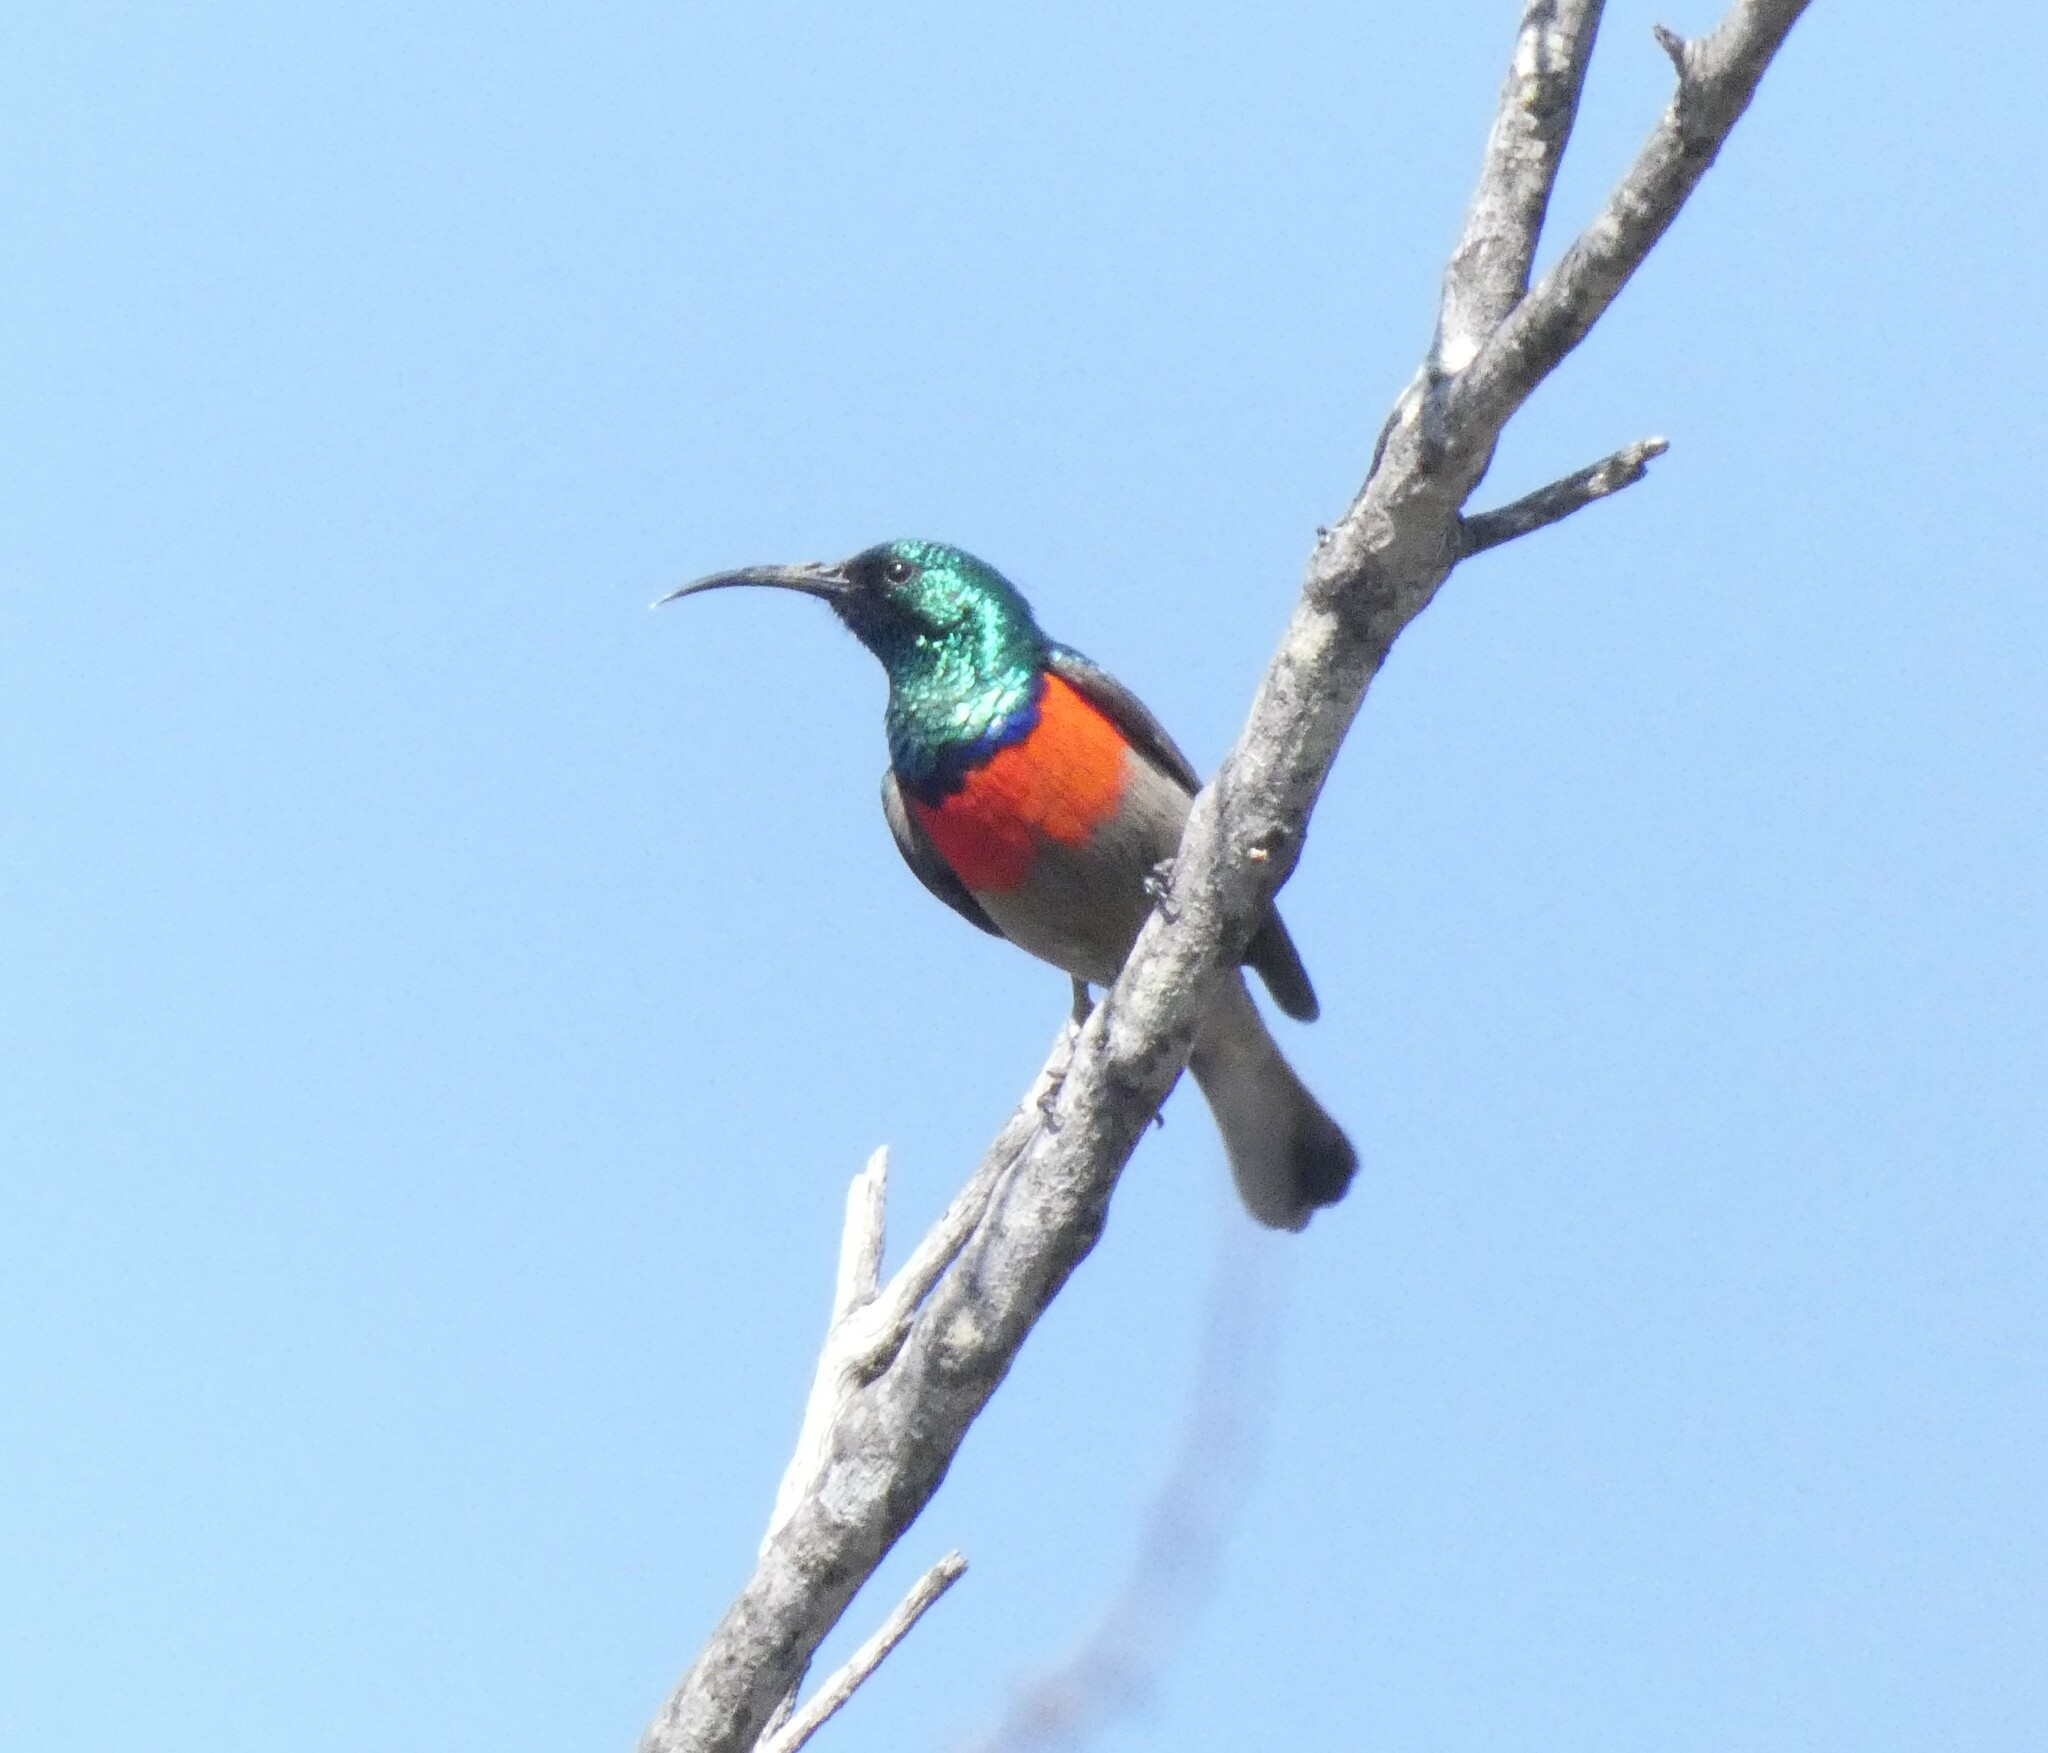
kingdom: Animalia
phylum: Chordata
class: Aves
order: Passeriformes
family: Nectariniidae
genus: Cinnyris
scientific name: Cinnyris afer
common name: Greater double-collared sunbird
